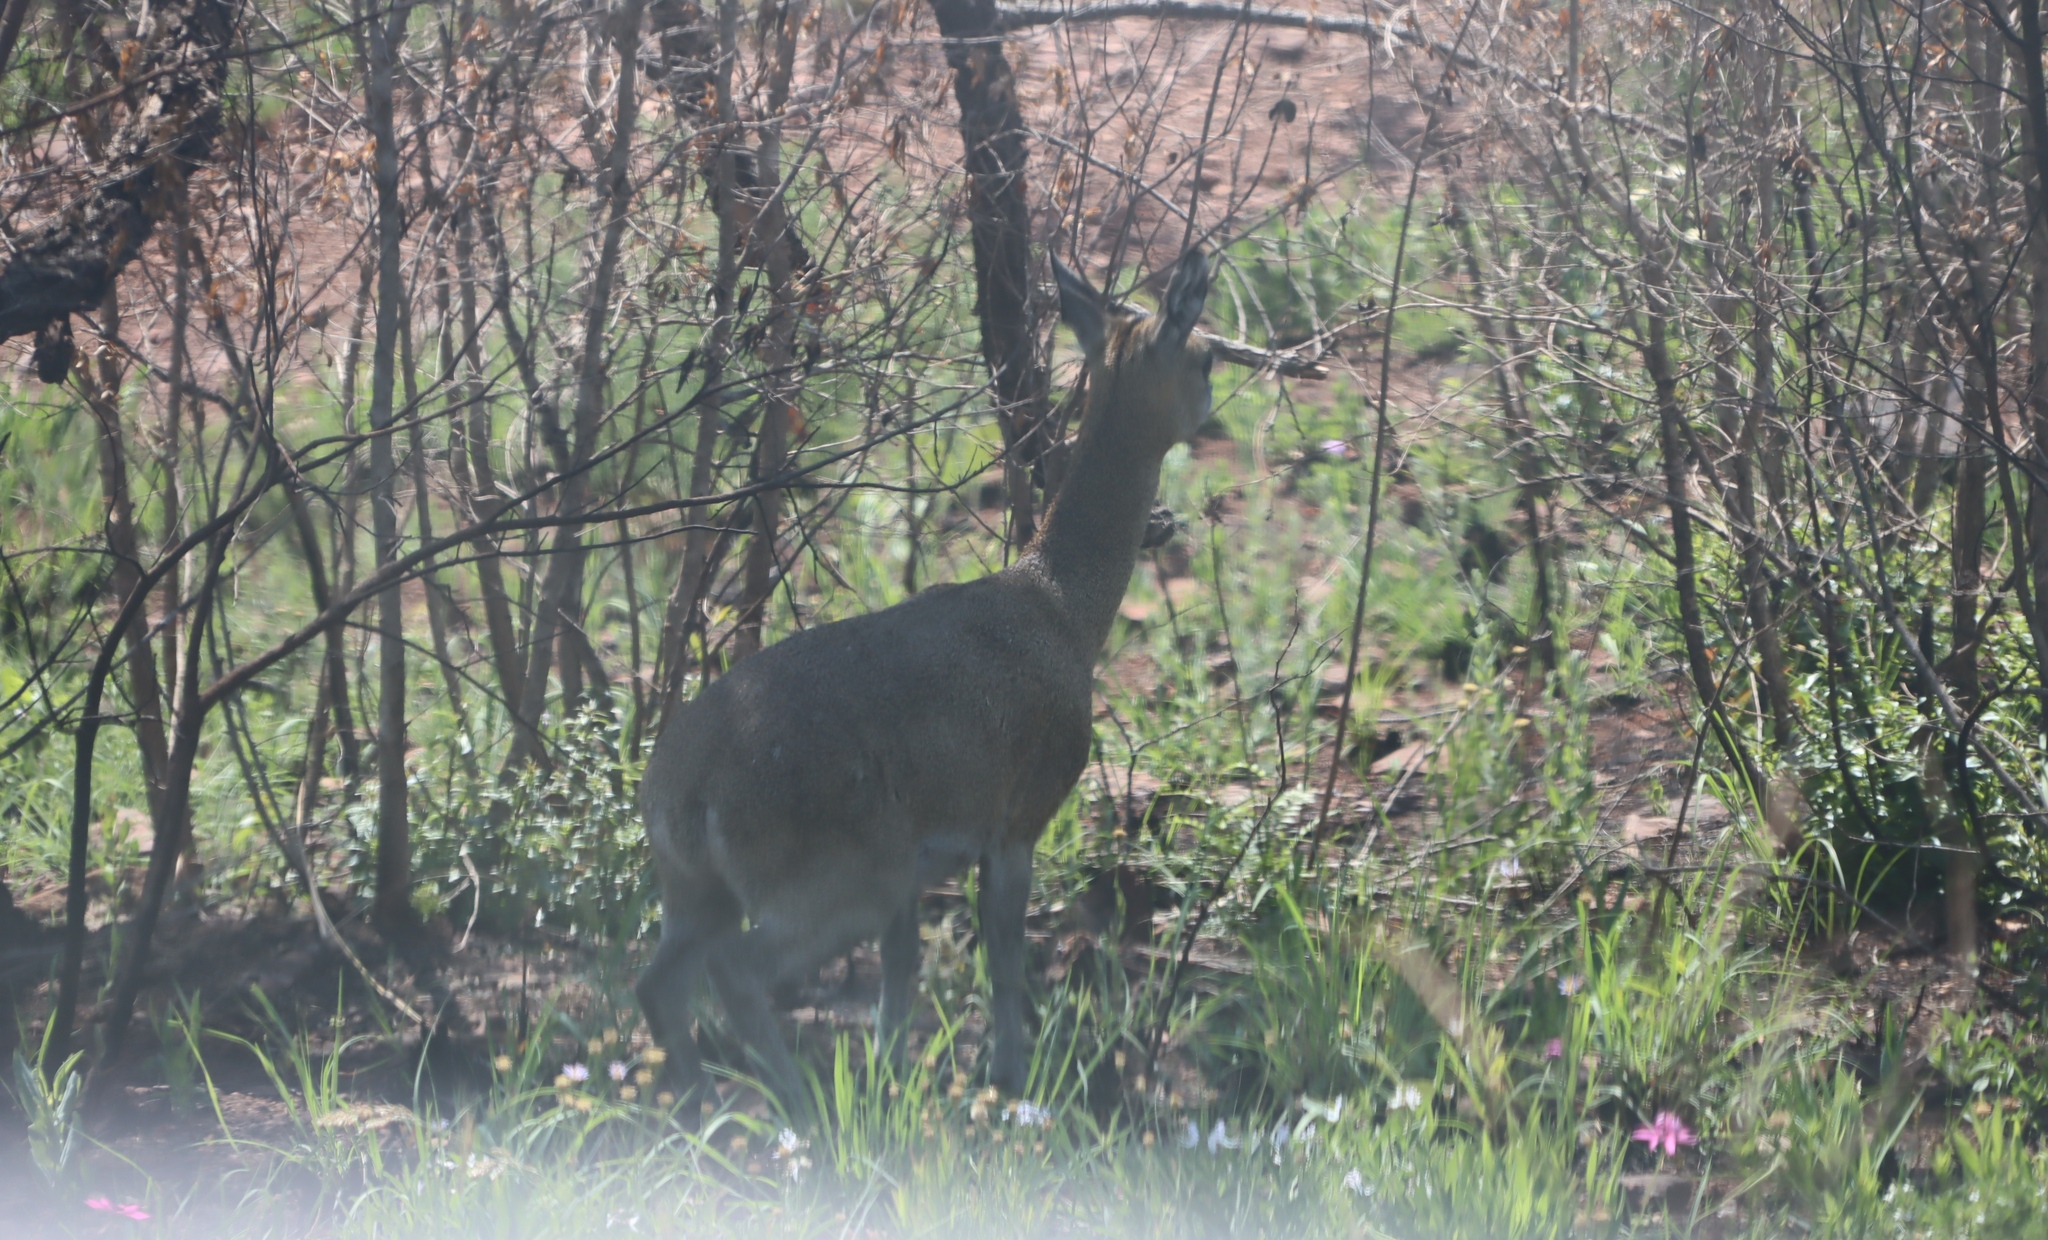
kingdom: Animalia
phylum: Chordata
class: Mammalia
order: Artiodactyla
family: Bovidae
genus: Oreotragus
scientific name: Oreotragus oreotragus
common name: Klipspringer
